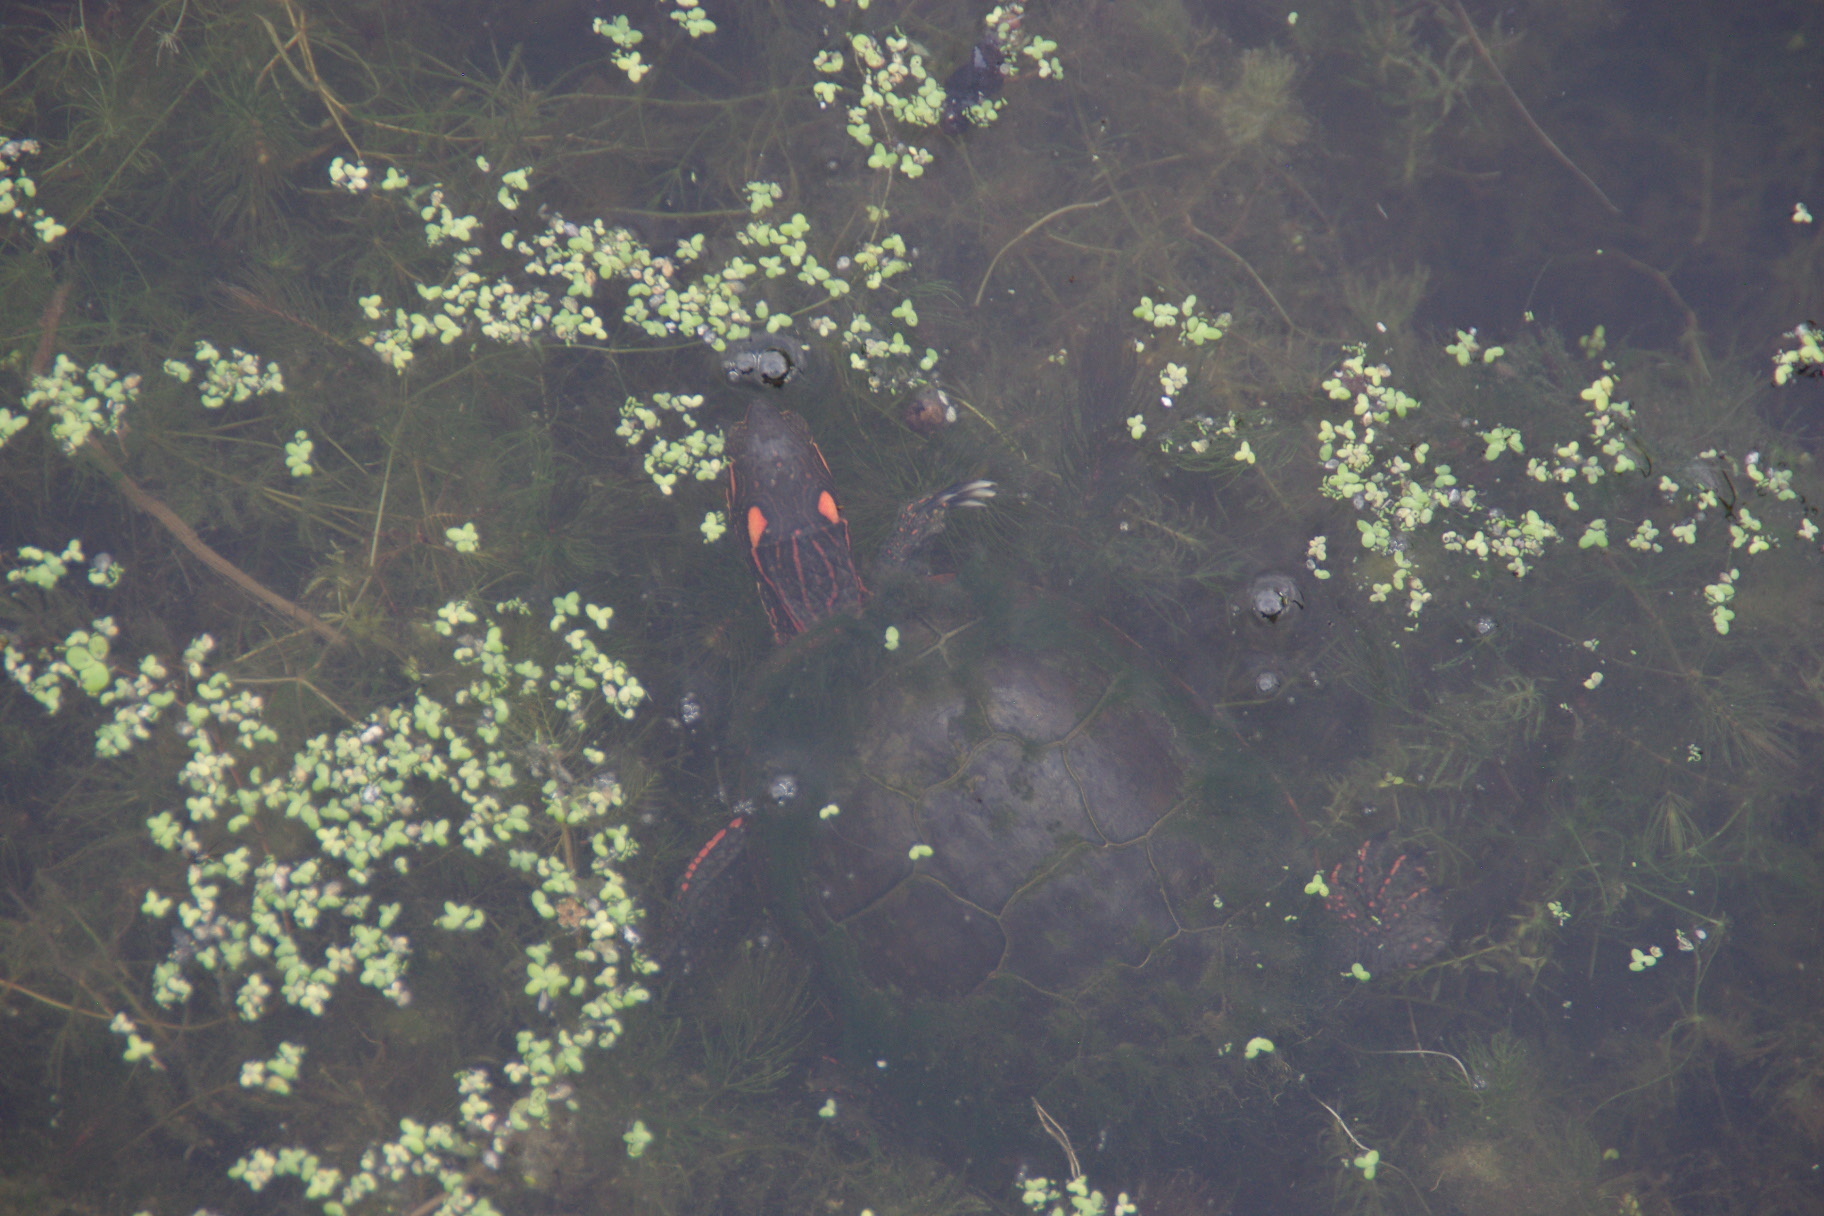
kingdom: Animalia
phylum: Chordata
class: Testudines
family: Emydidae
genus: Chrysemys
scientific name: Chrysemys picta
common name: Painted turtle
